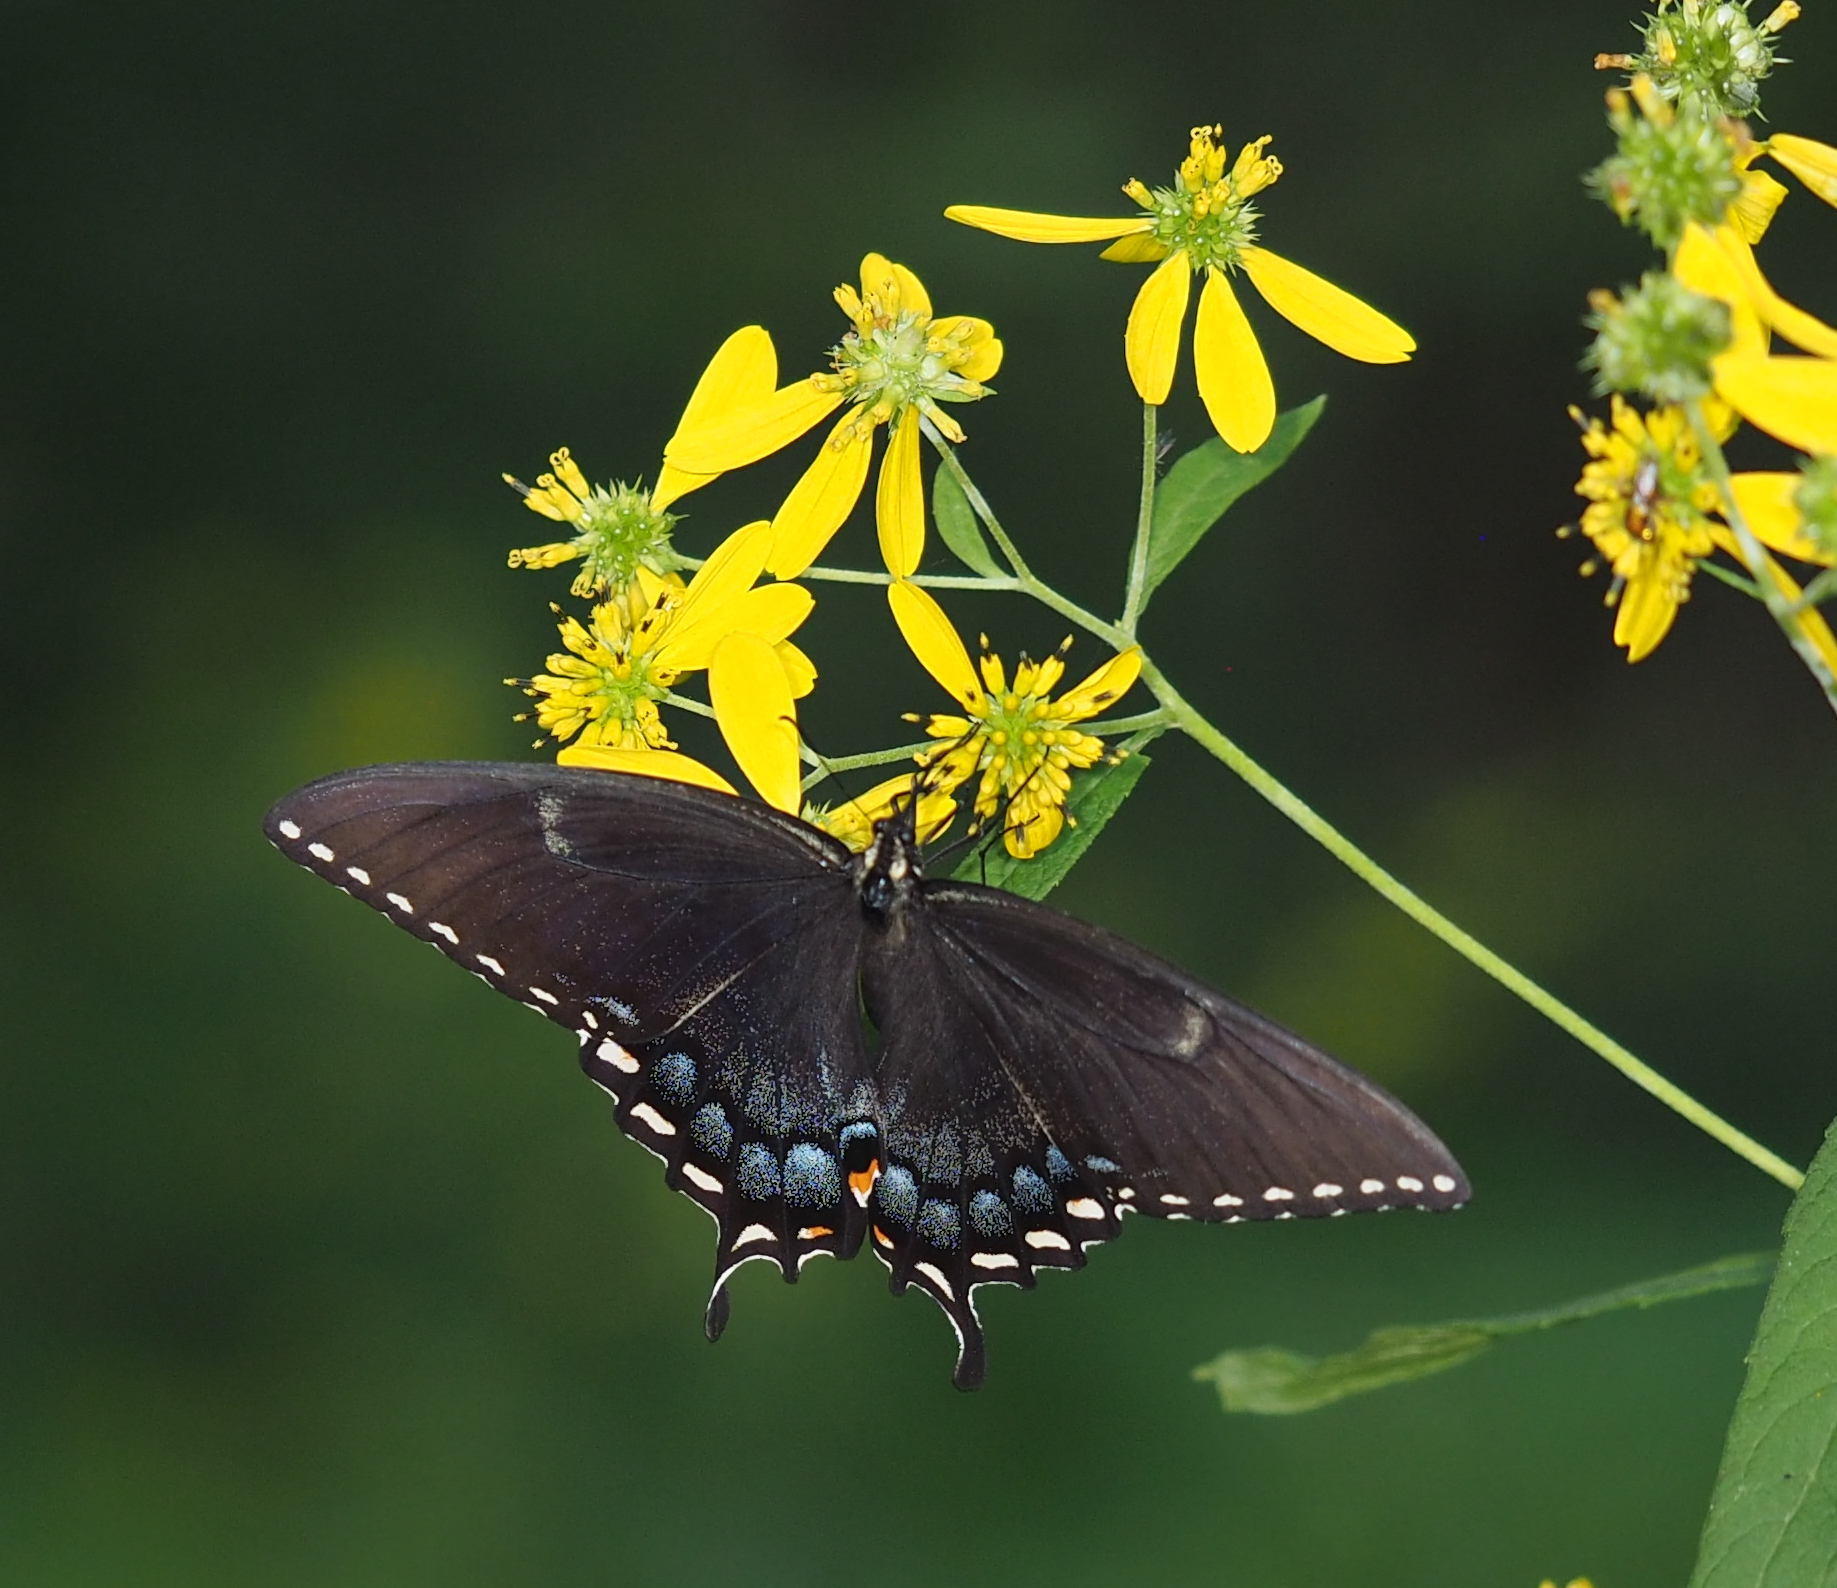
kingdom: Animalia
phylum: Arthropoda
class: Insecta
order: Lepidoptera
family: Papilionidae
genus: Papilio
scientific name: Papilio glaucus
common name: Tiger swallowtail
